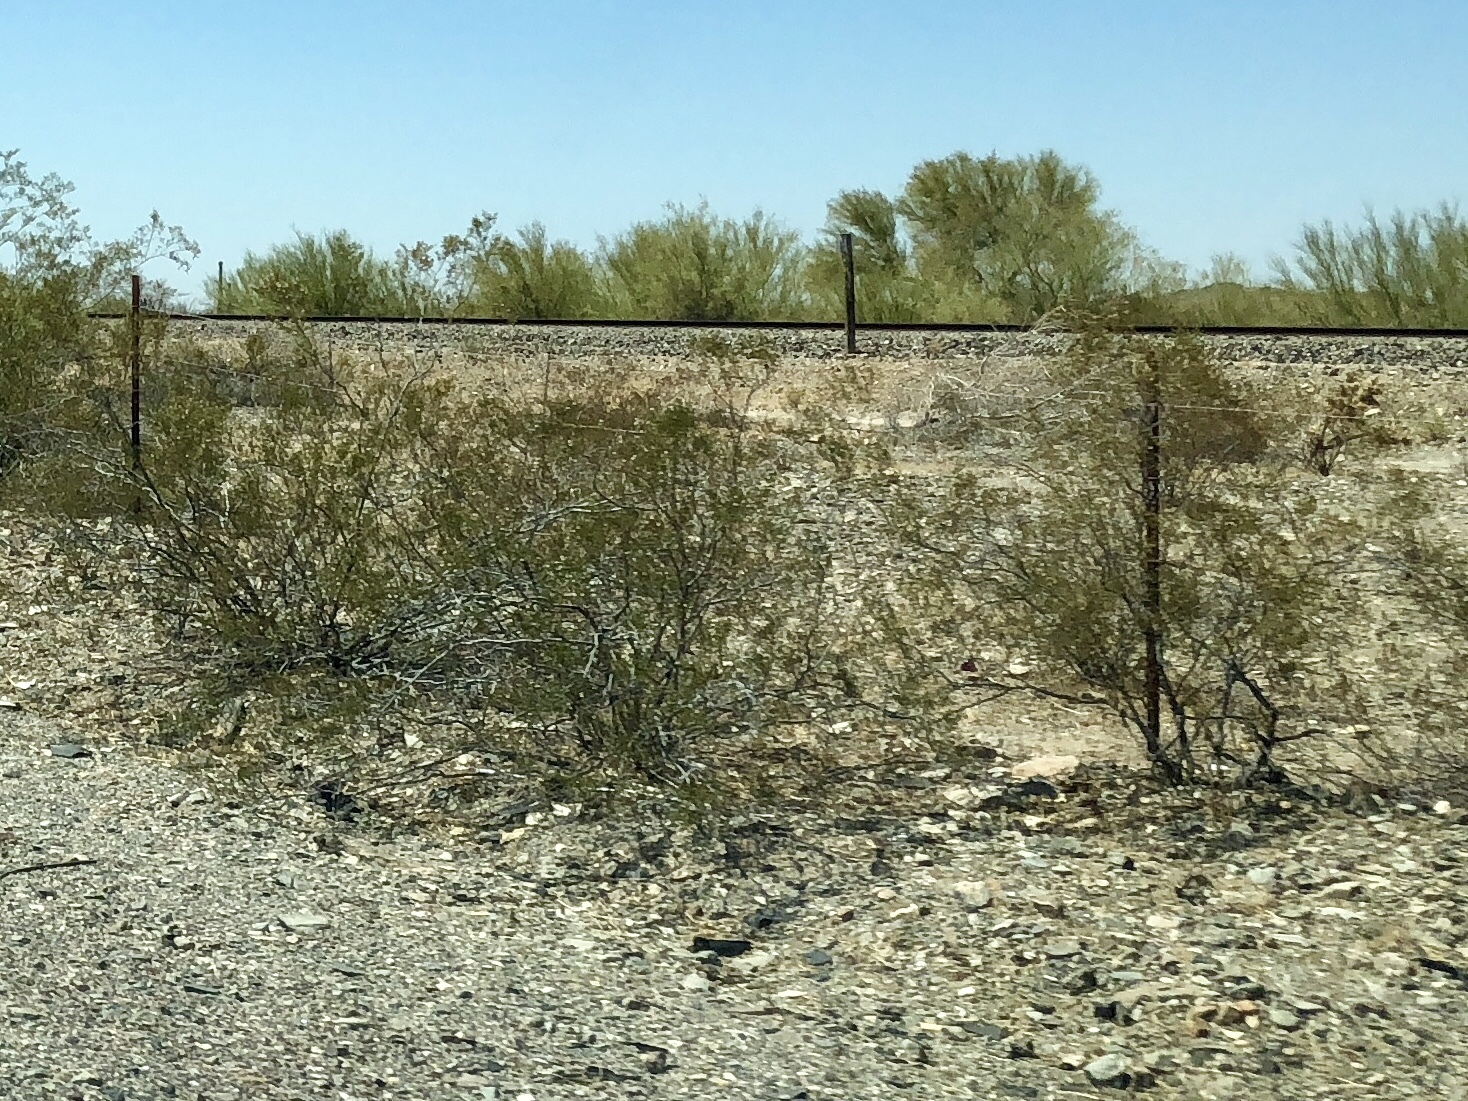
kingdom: Plantae
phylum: Tracheophyta
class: Magnoliopsida
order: Zygophyllales
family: Zygophyllaceae
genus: Larrea
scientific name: Larrea tridentata
